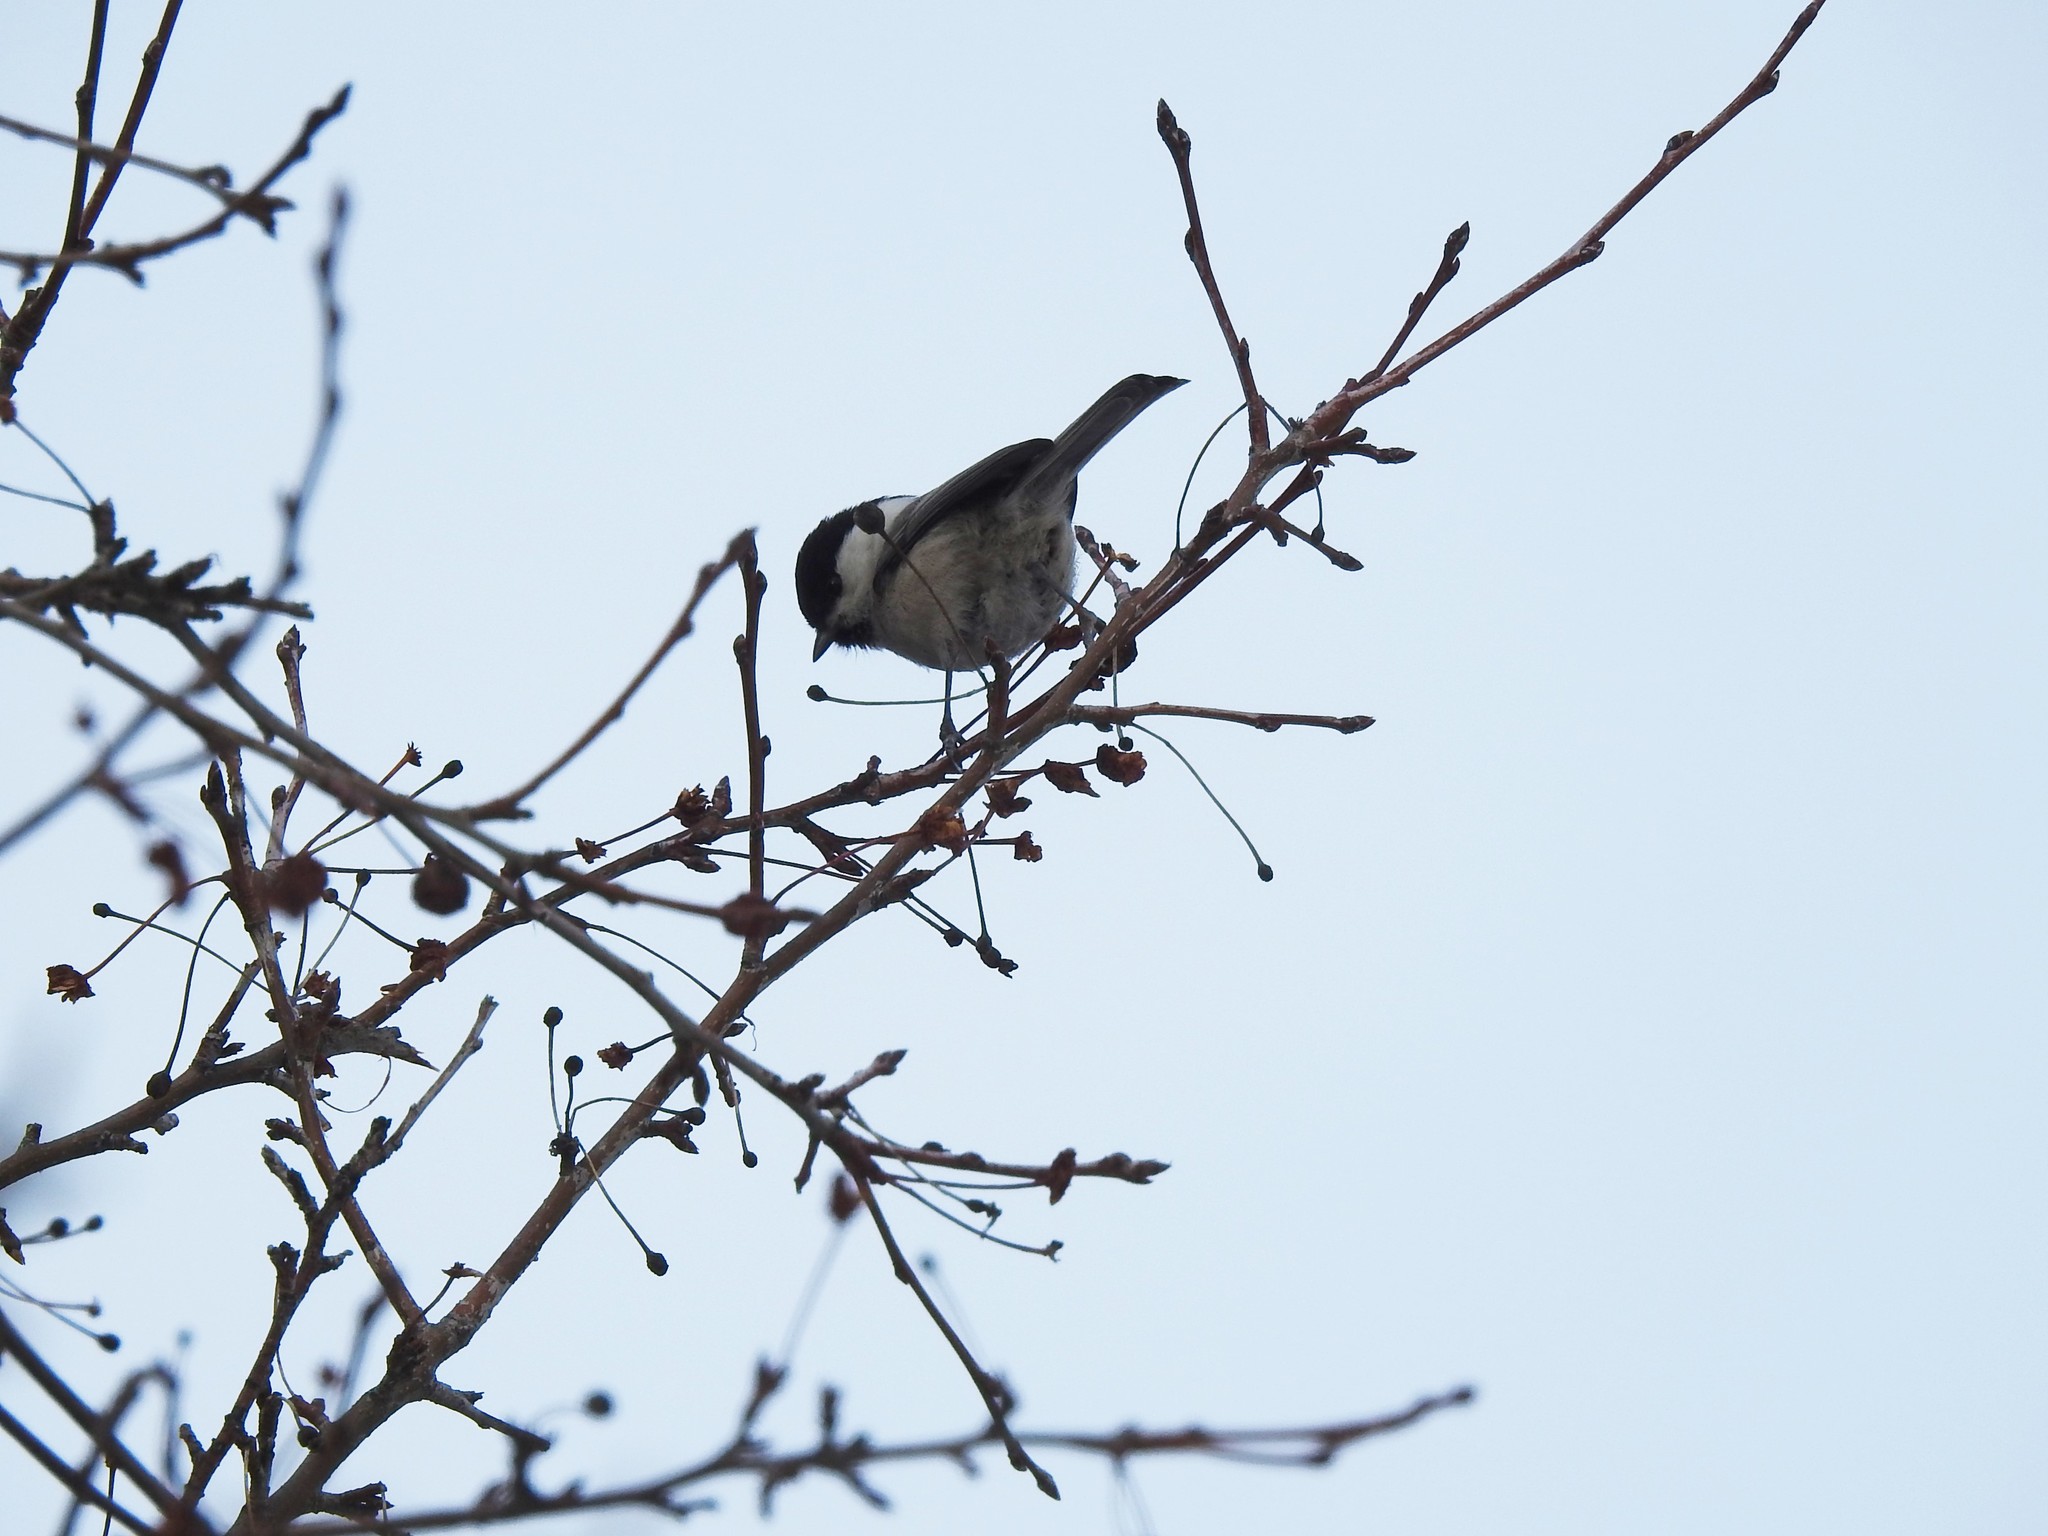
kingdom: Animalia
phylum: Chordata
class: Aves
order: Passeriformes
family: Paridae
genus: Poecile
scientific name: Poecile montanus
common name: Willow tit
